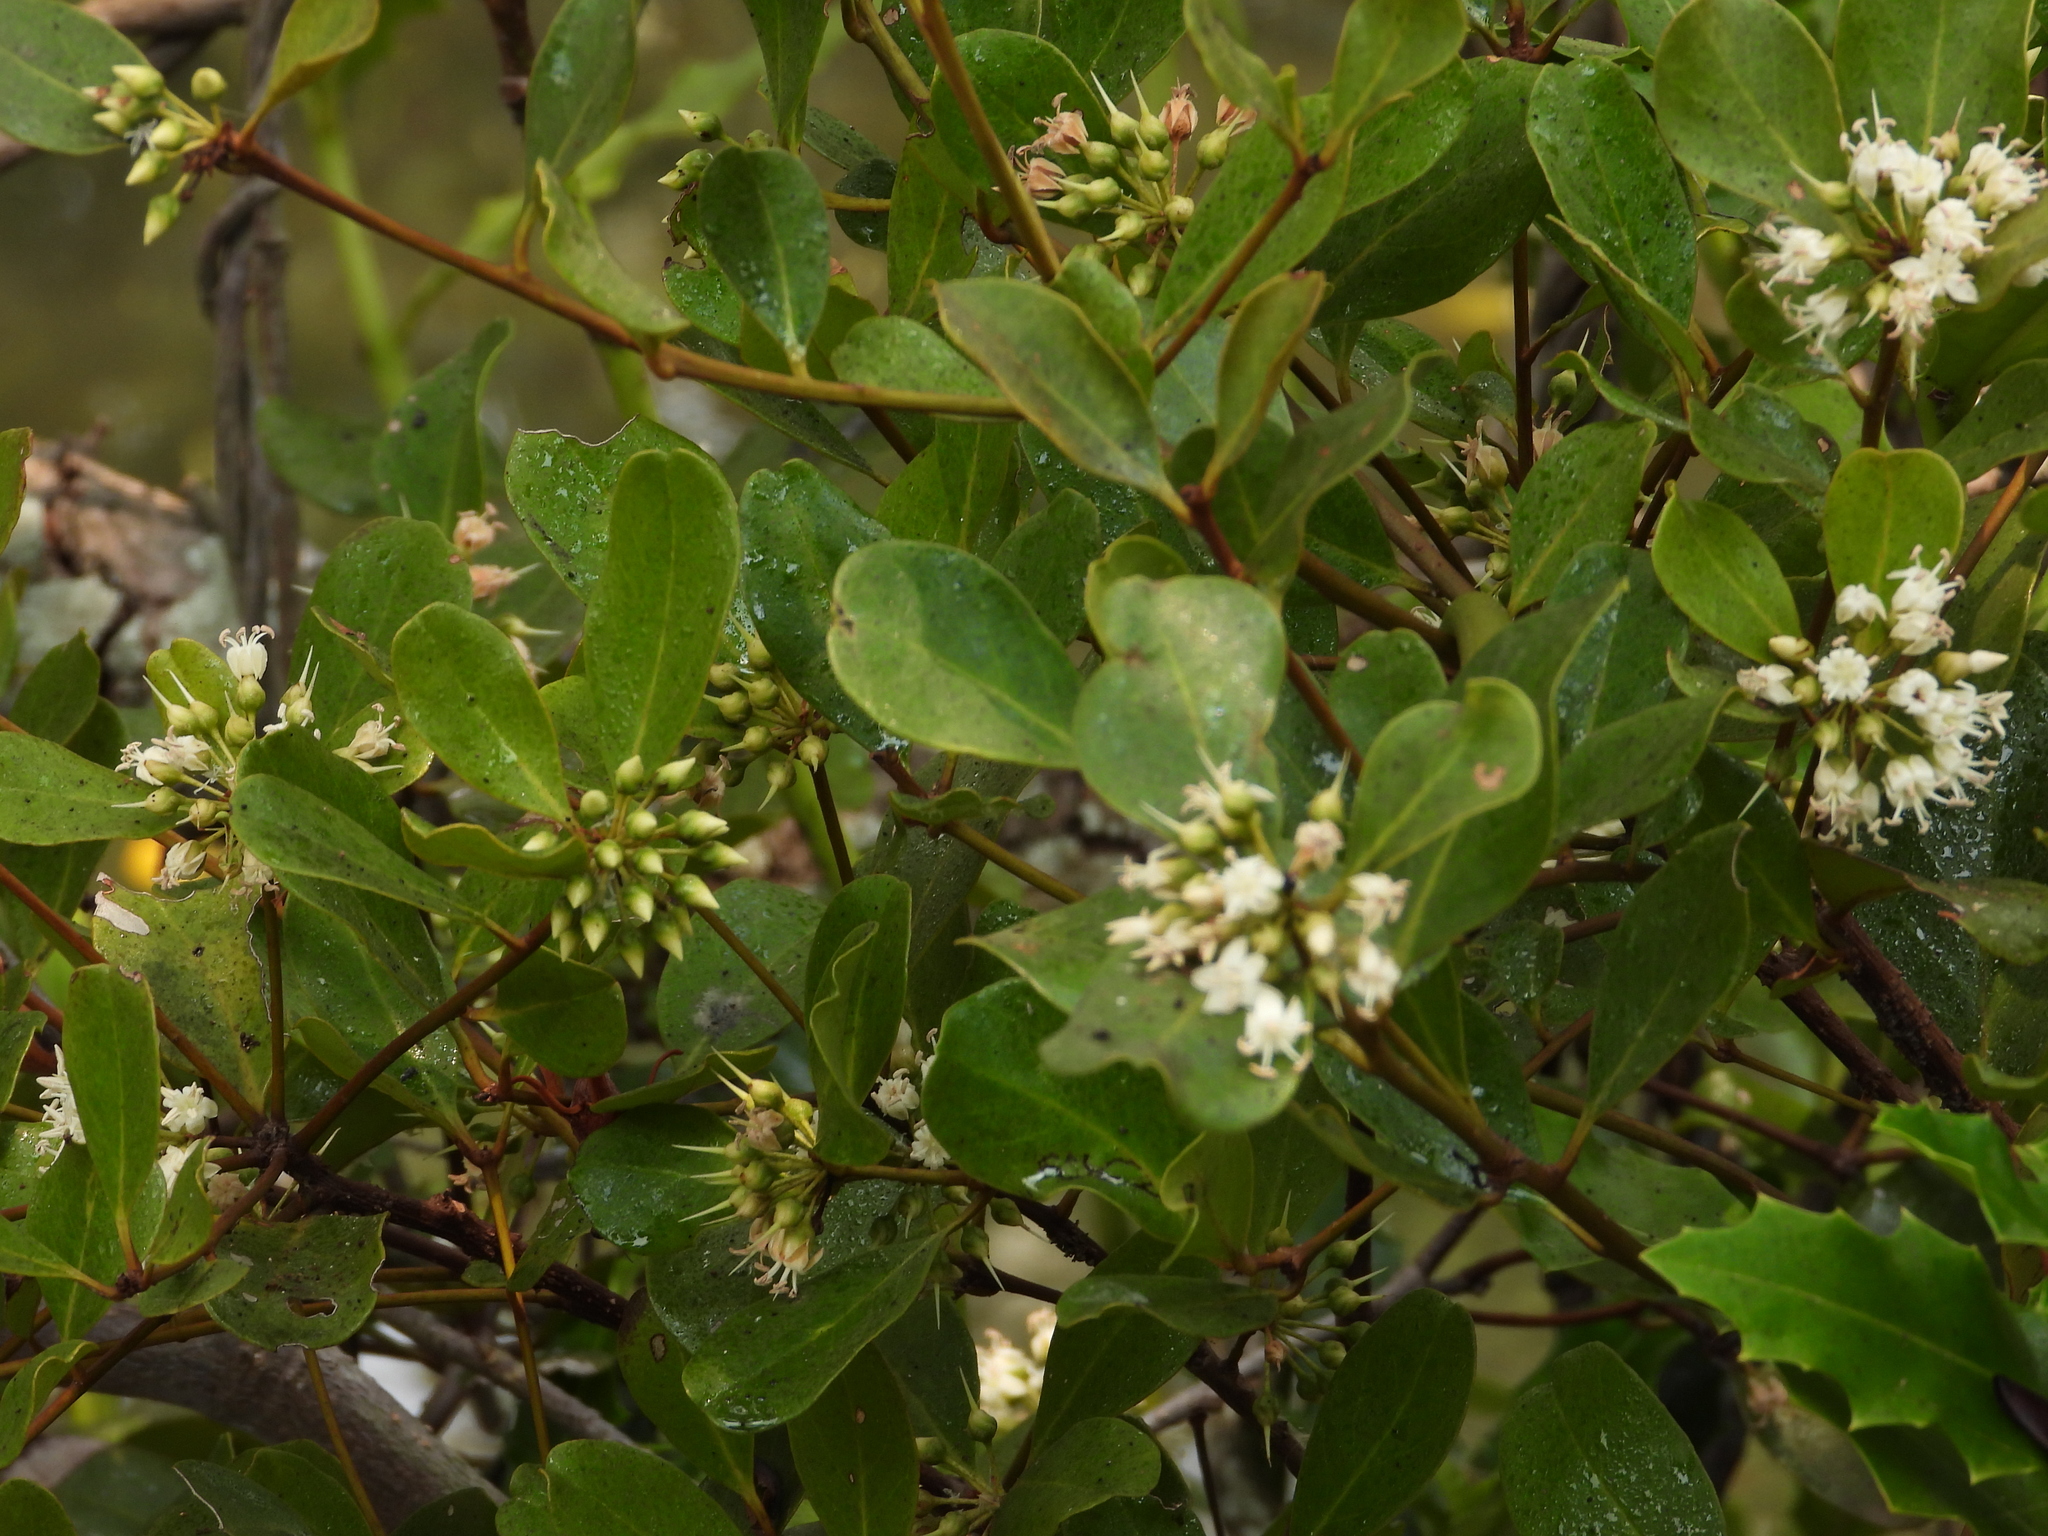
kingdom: Plantae
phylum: Tracheophyta
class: Magnoliopsida
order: Ericales
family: Primulaceae
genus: Aegiceras
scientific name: Aegiceras corniculatum
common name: River mangrove
